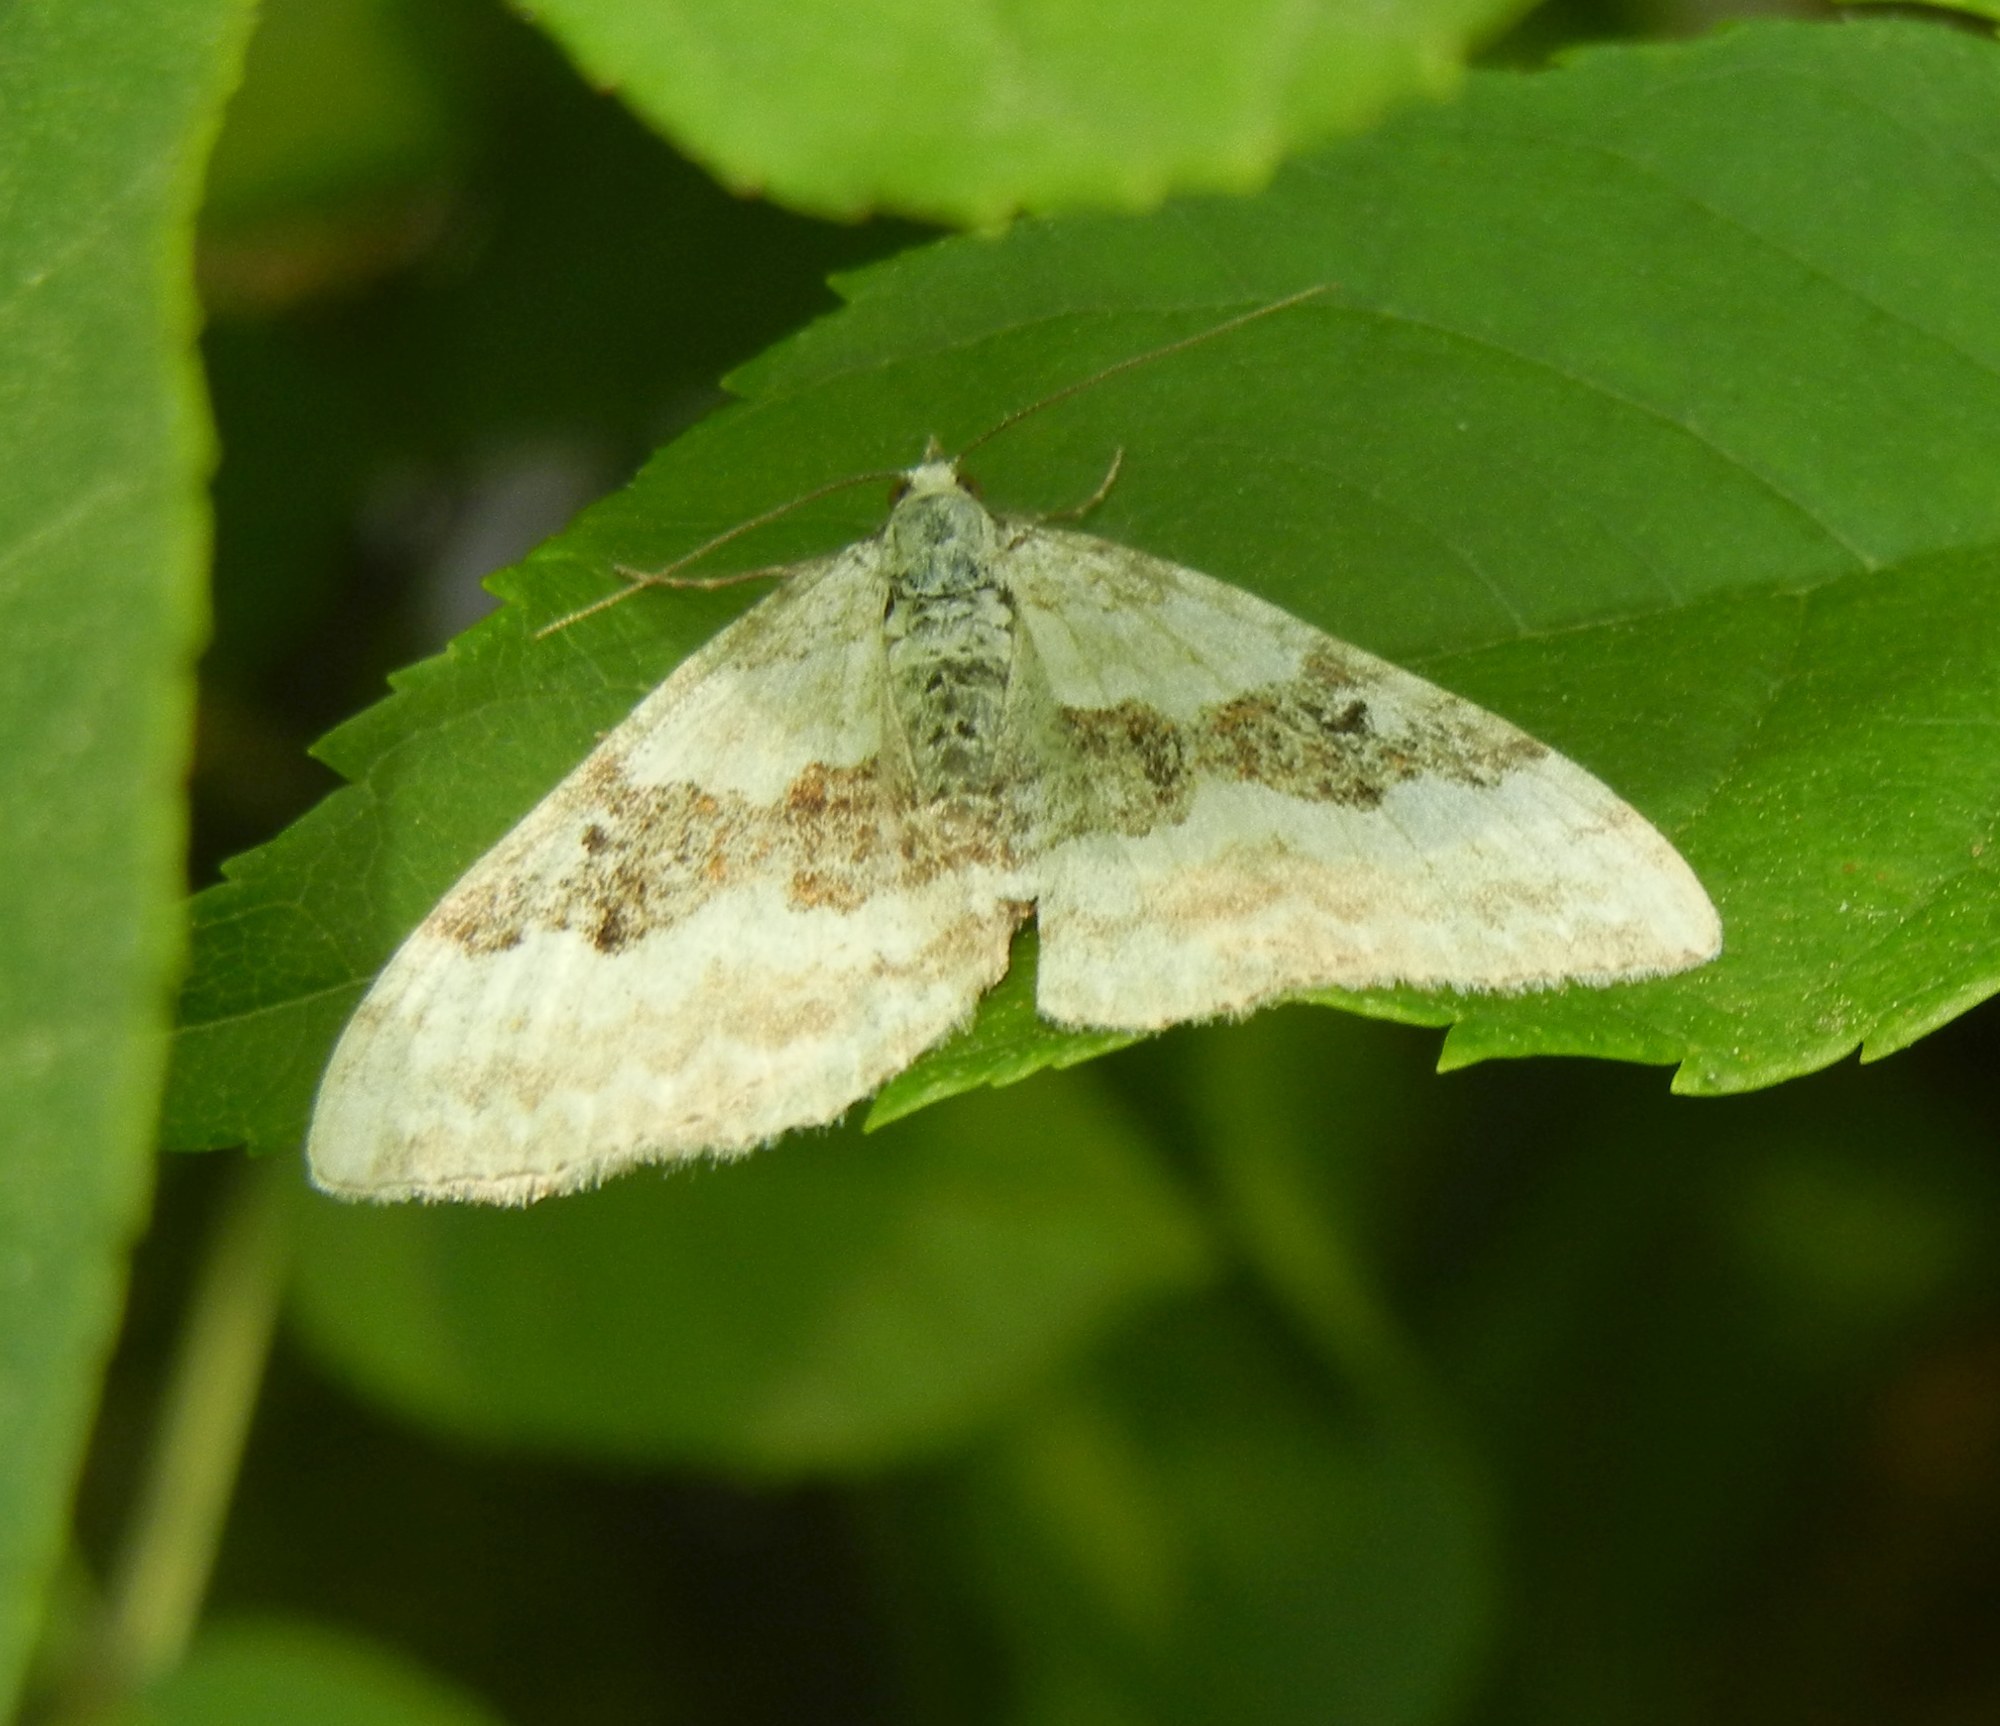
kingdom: Animalia
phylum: Arthropoda
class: Insecta
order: Lepidoptera
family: Geometridae
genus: Xanthorhoe
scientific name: Xanthorhoe montanata
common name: Silver-ground carpet
